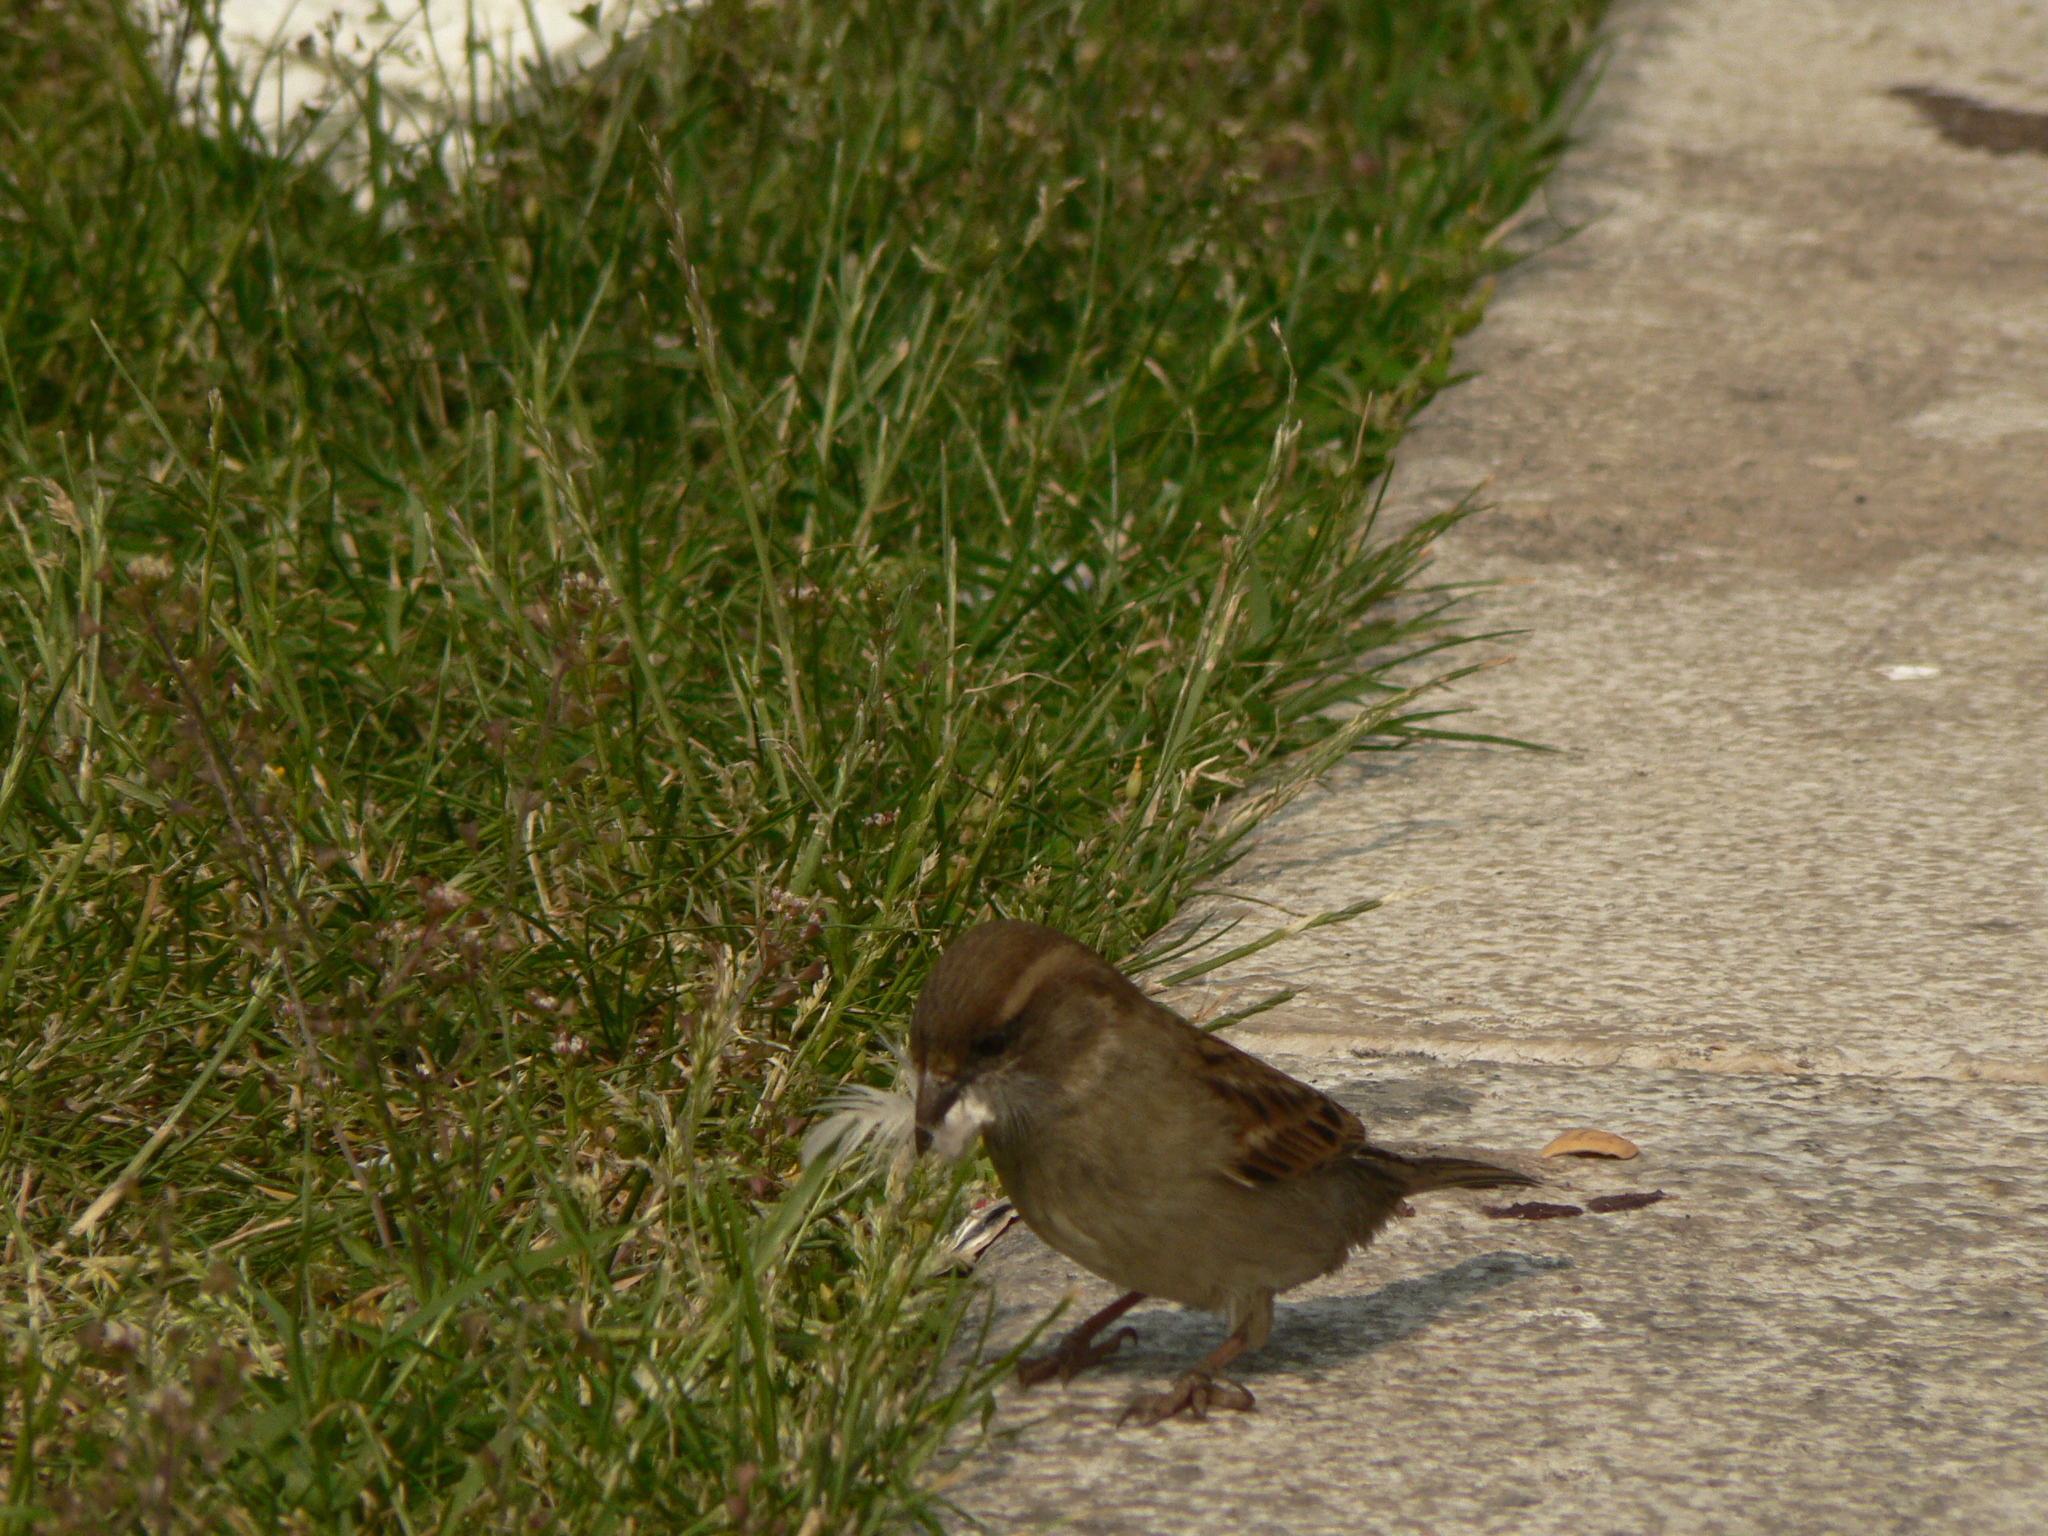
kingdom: Animalia
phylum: Chordata
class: Aves
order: Passeriformes
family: Passeridae
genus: Passer
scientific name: Passer italiae
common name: Italian sparrow
